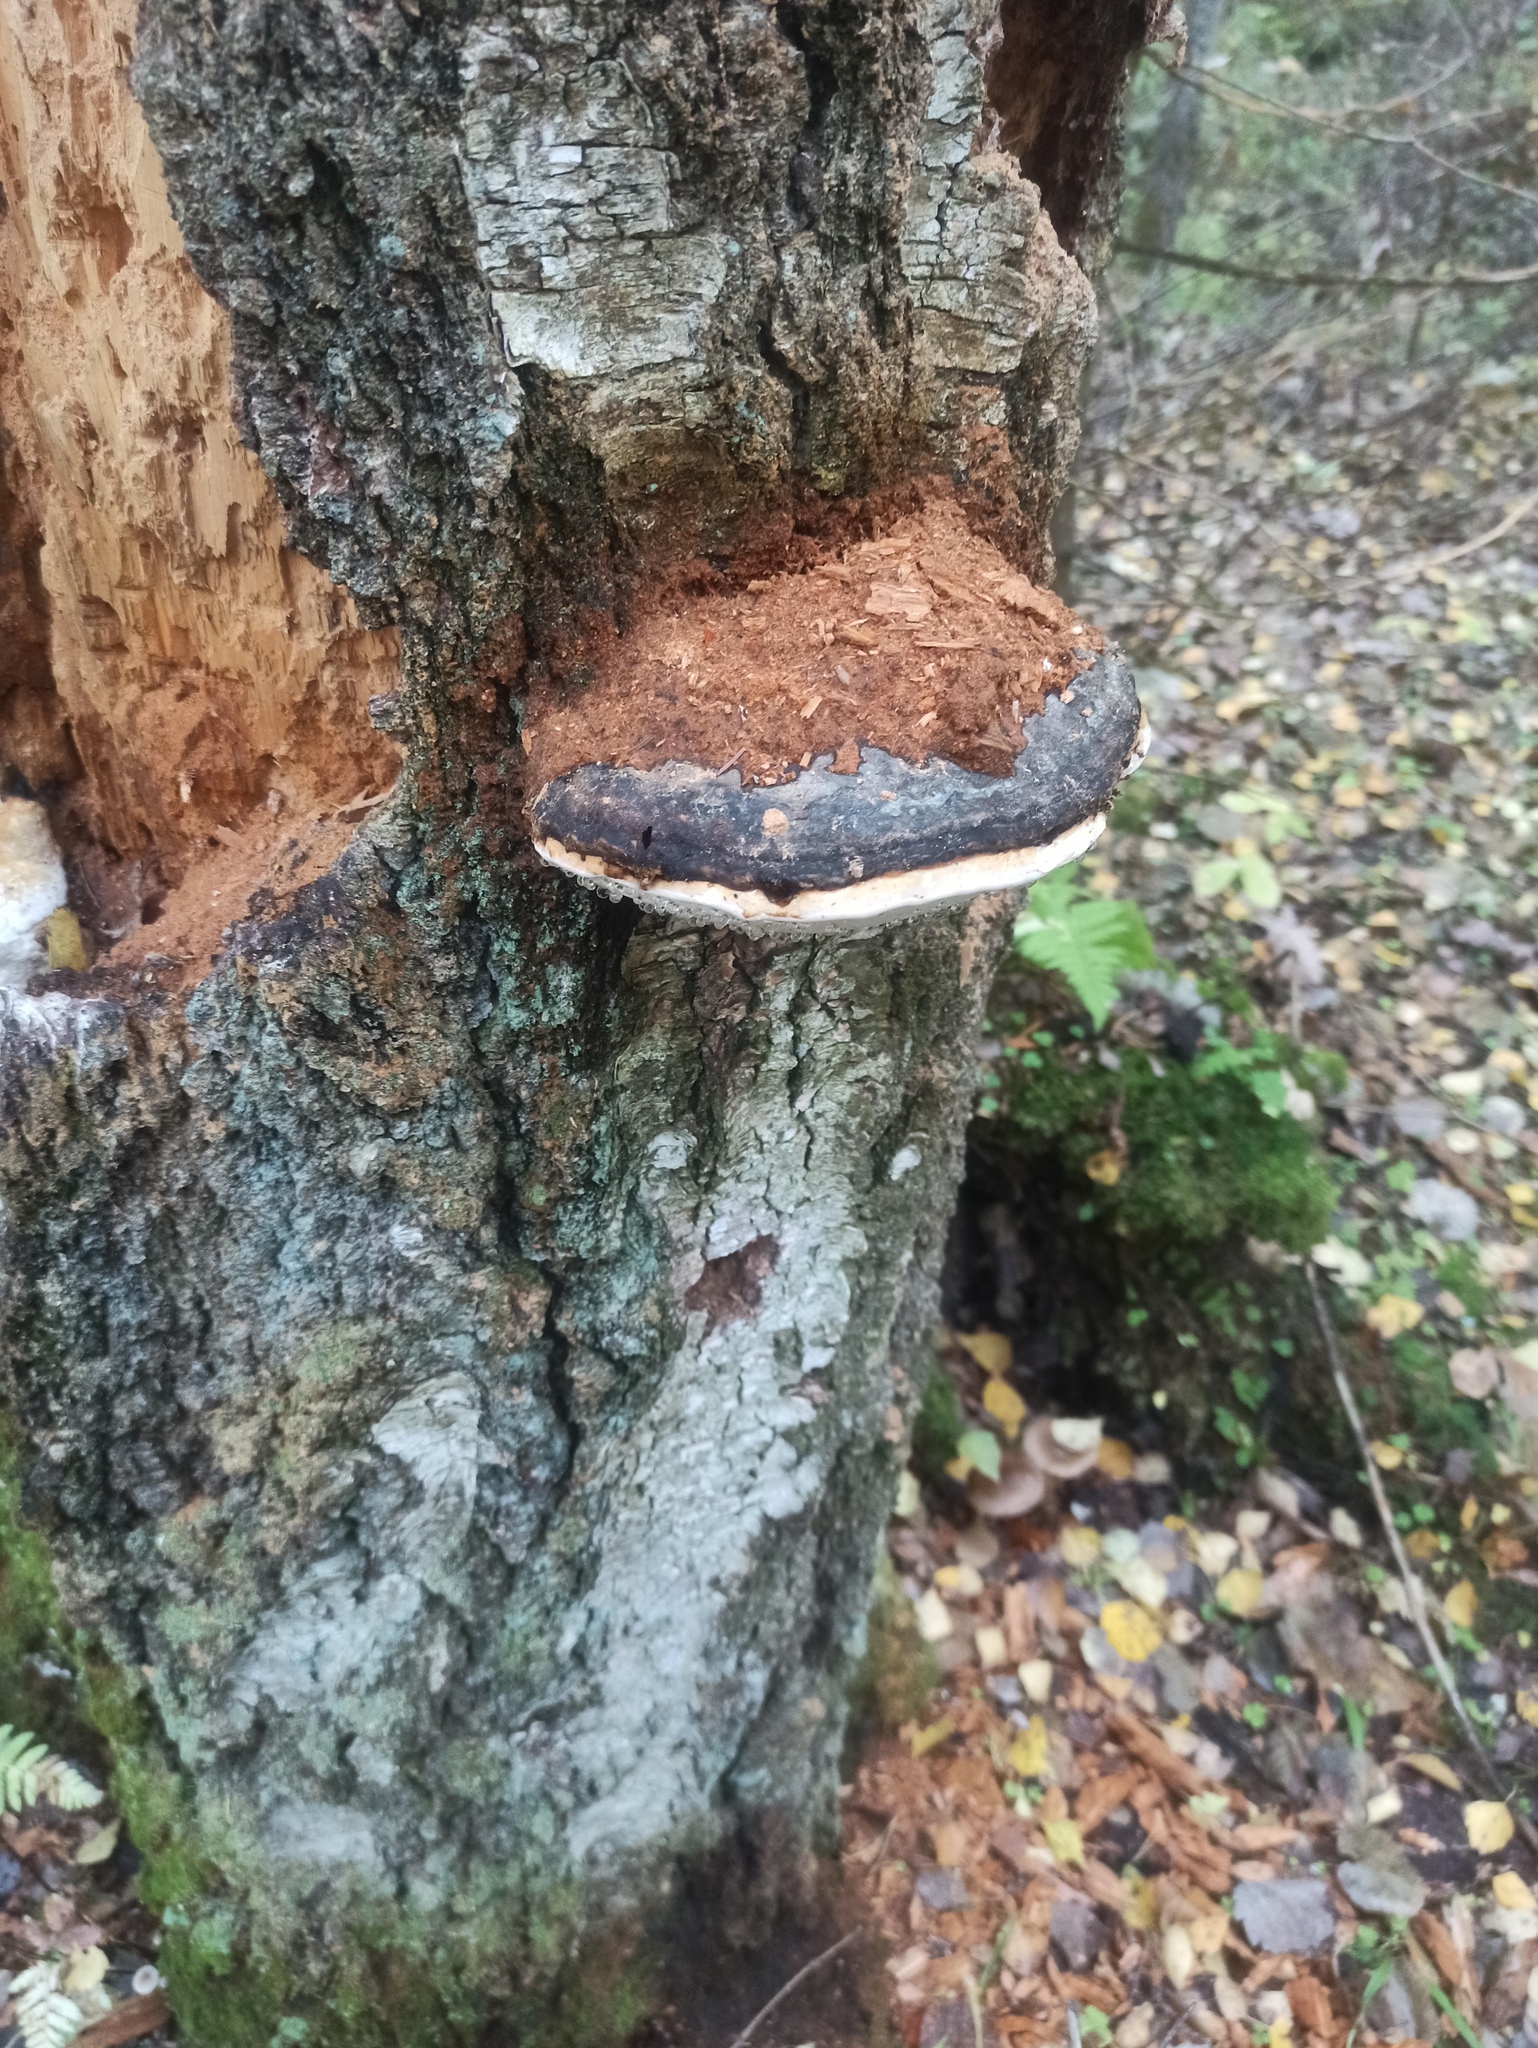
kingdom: Fungi
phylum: Basidiomycota
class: Agaricomycetes
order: Polyporales
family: Fomitopsidaceae
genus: Fomitopsis
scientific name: Fomitopsis pinicola
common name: Red-belted bracket
